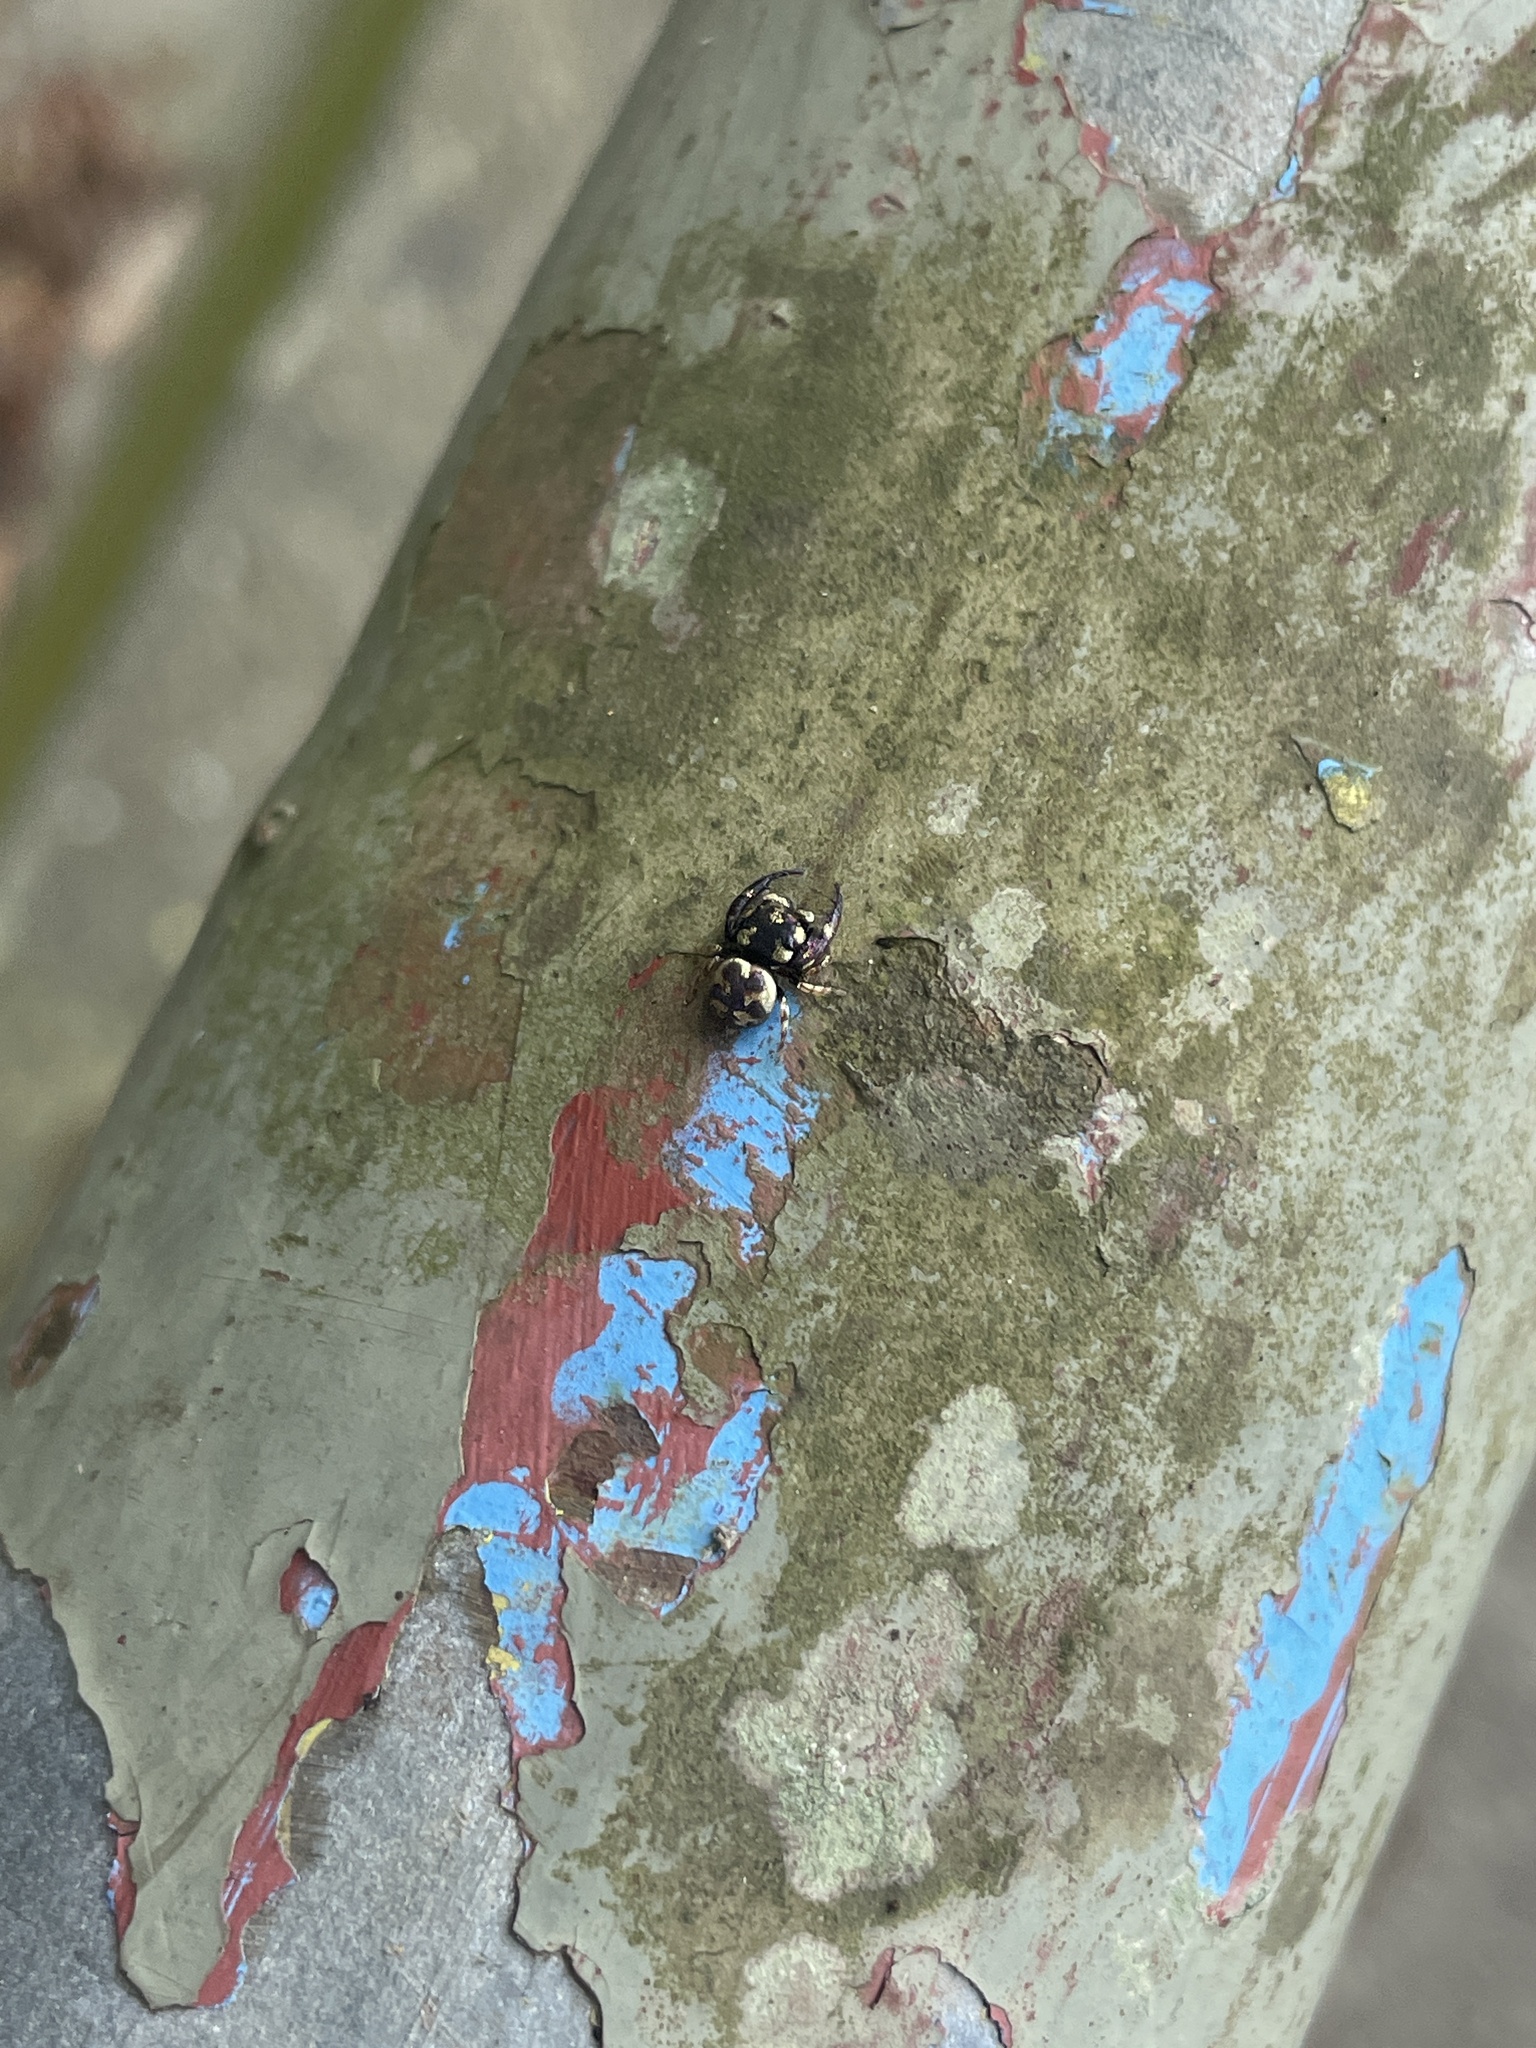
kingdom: Animalia
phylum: Arthropoda
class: Arachnida
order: Araneae
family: Salticidae
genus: Irura
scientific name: Irura bidenticulata
